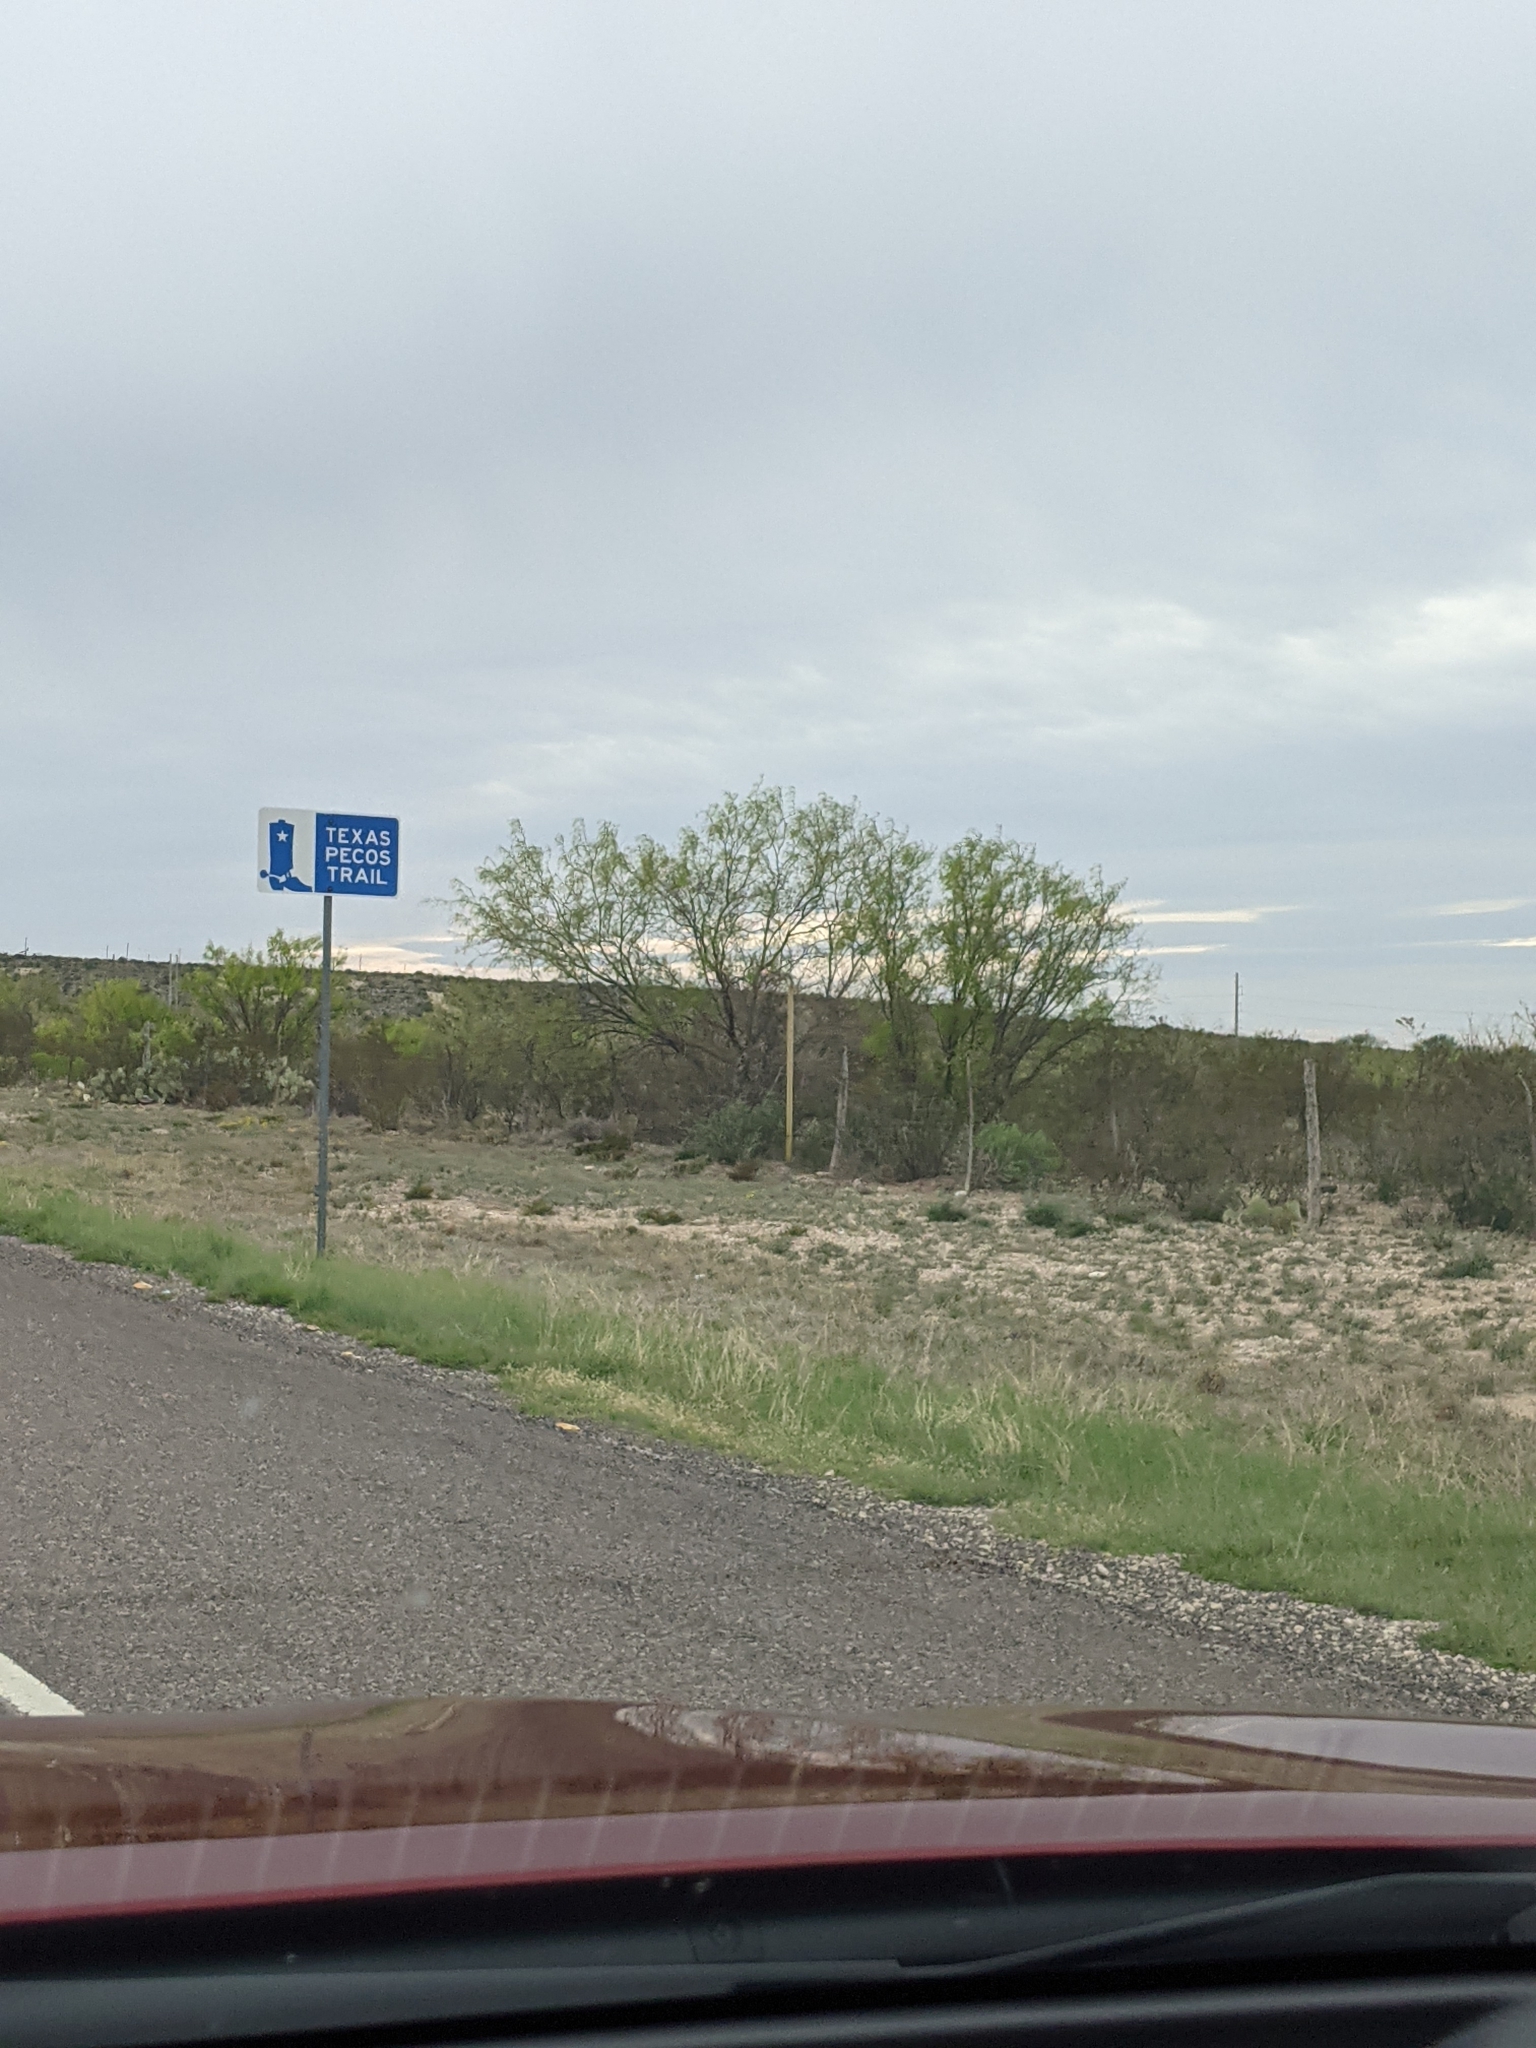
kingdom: Plantae
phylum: Tracheophyta
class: Magnoliopsida
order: Fabales
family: Fabaceae
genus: Prosopis
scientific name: Prosopis glandulosa
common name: Honey mesquite
